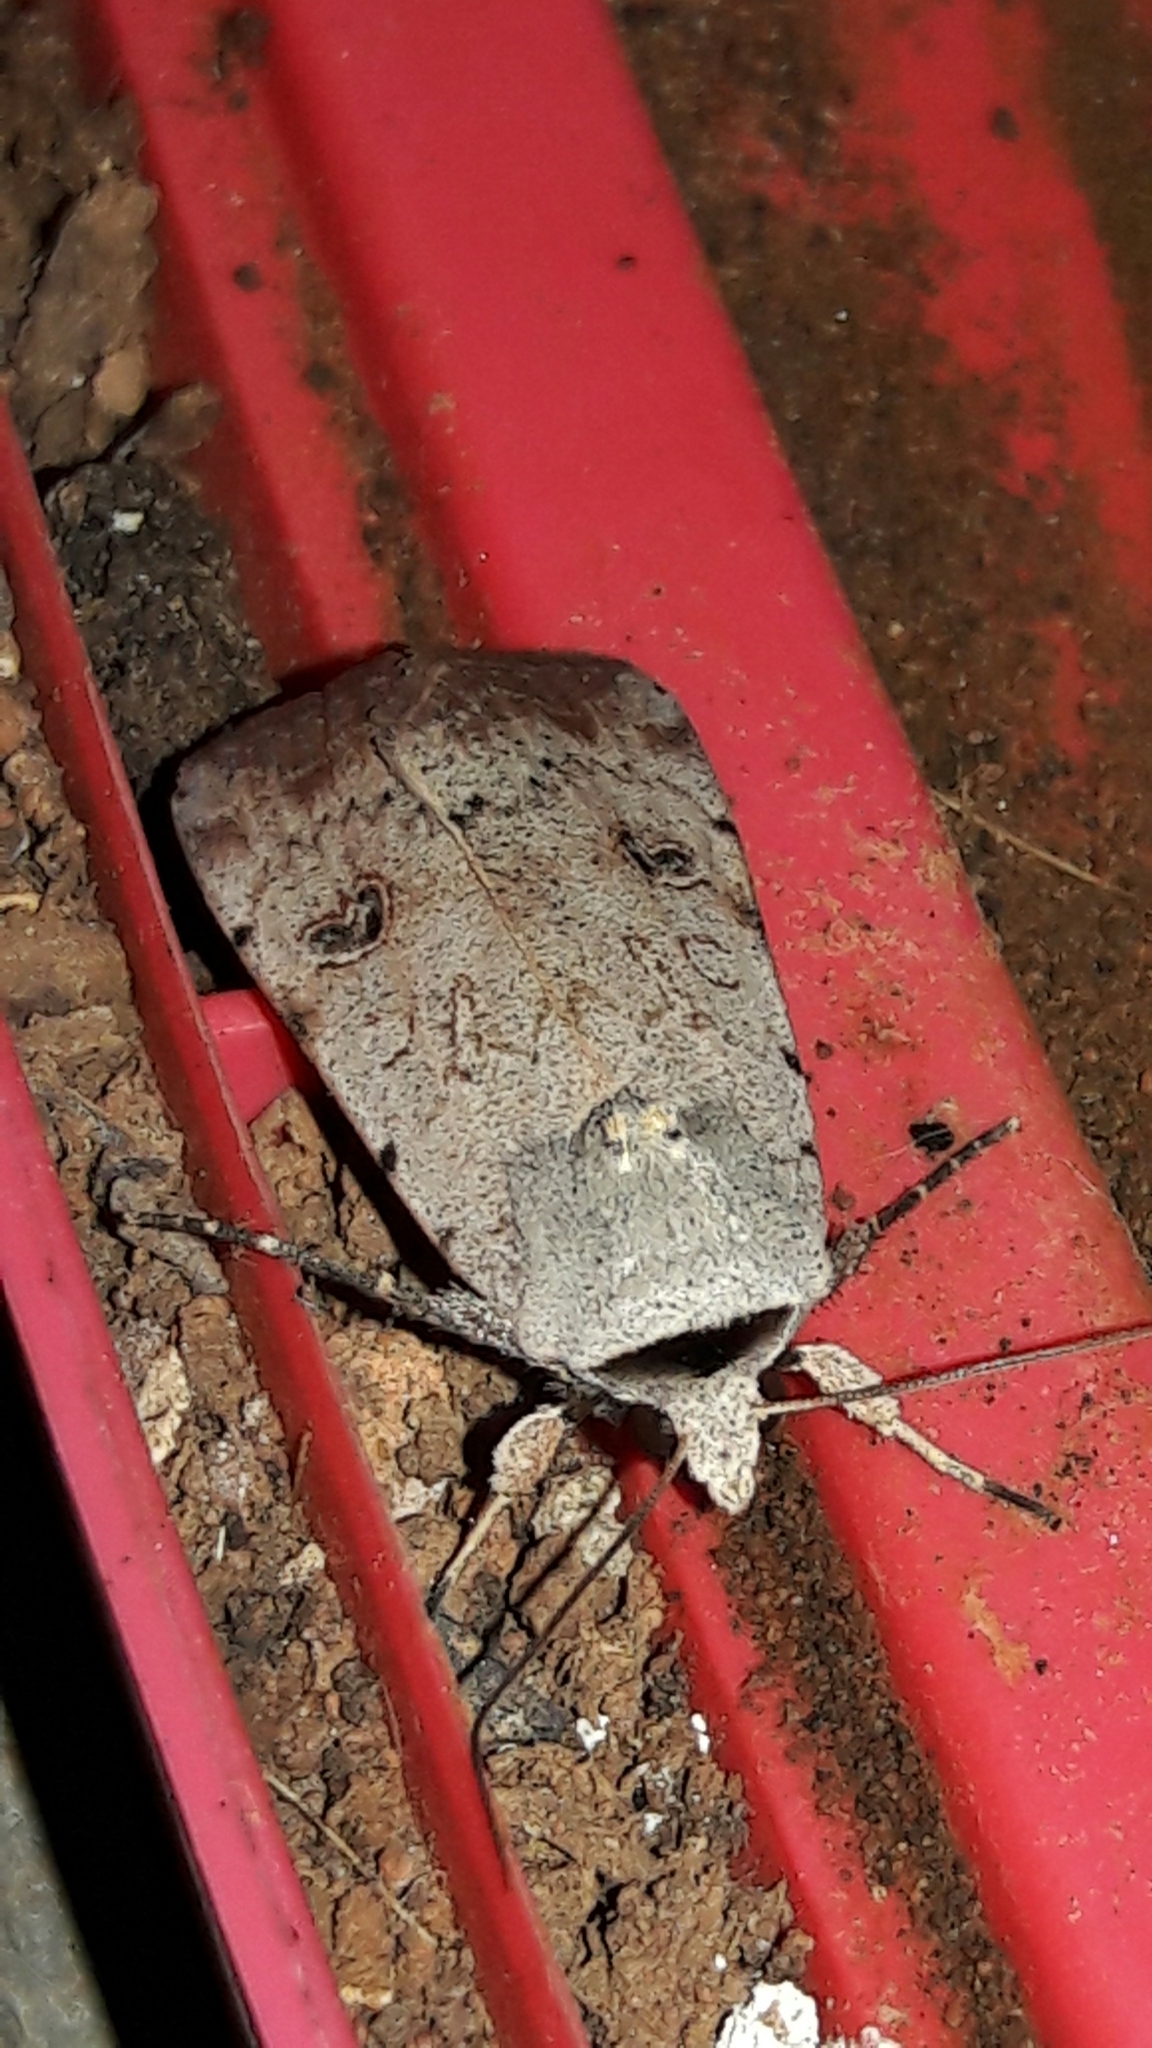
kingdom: Animalia
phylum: Arthropoda
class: Insecta
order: Lepidoptera
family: Noctuidae
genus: Anicla
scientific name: Anicla infecta
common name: Green cutworm
